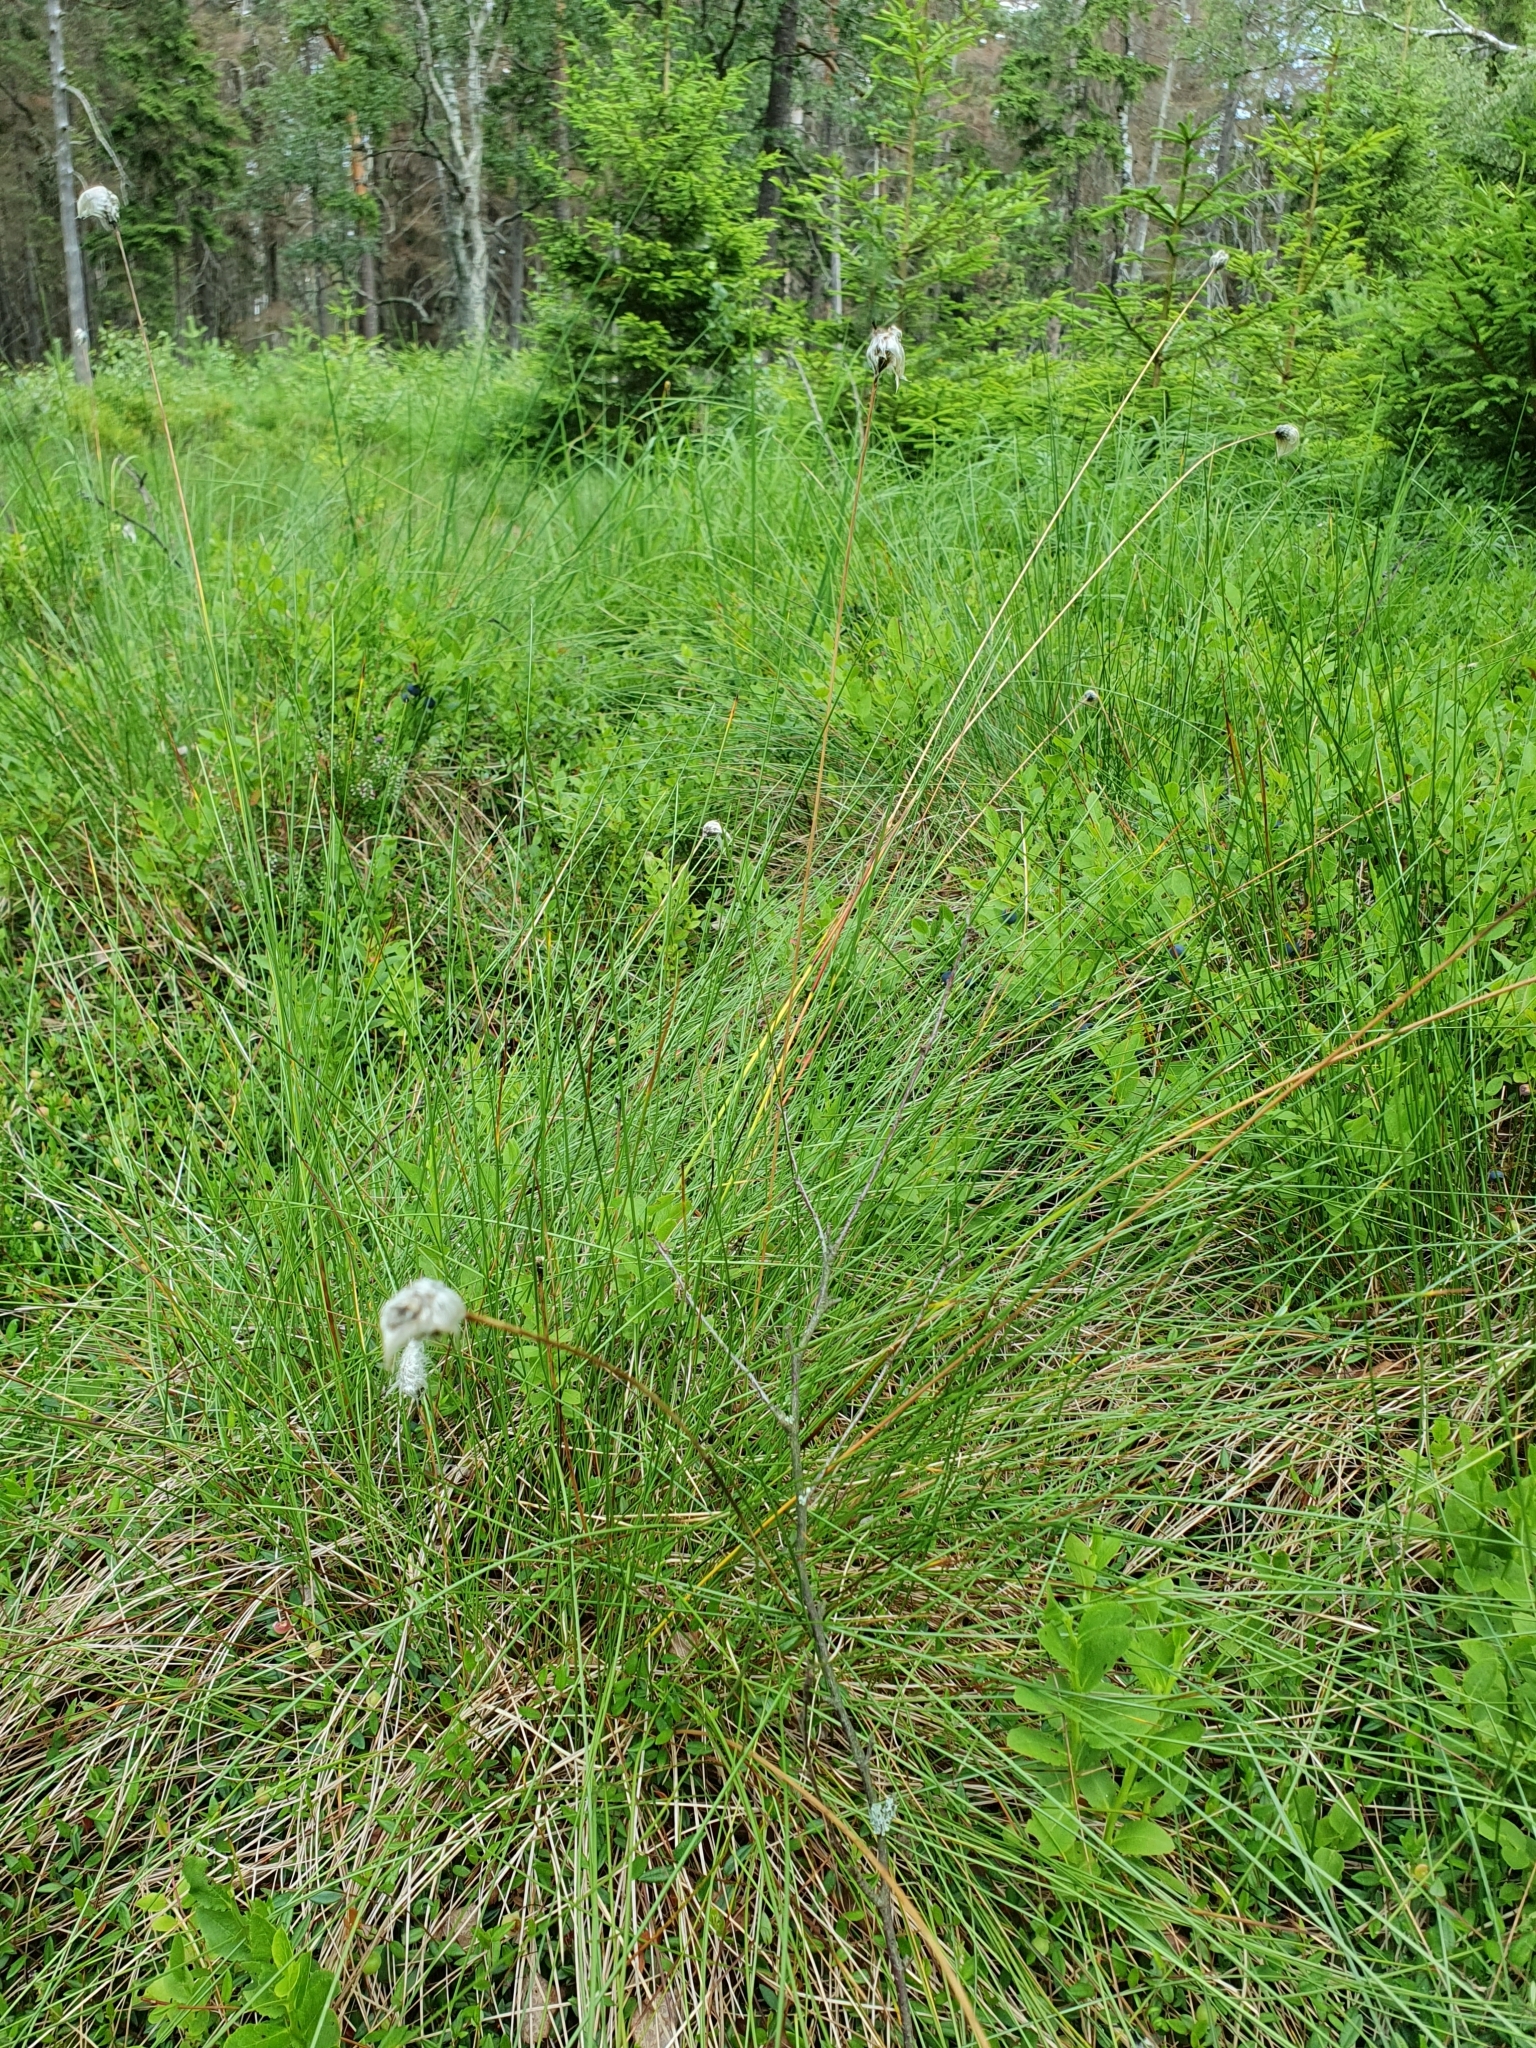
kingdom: Plantae
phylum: Tracheophyta
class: Liliopsida
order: Poales
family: Cyperaceae
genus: Eriophorum
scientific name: Eriophorum vaginatum
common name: Hare's-tail cottongrass
